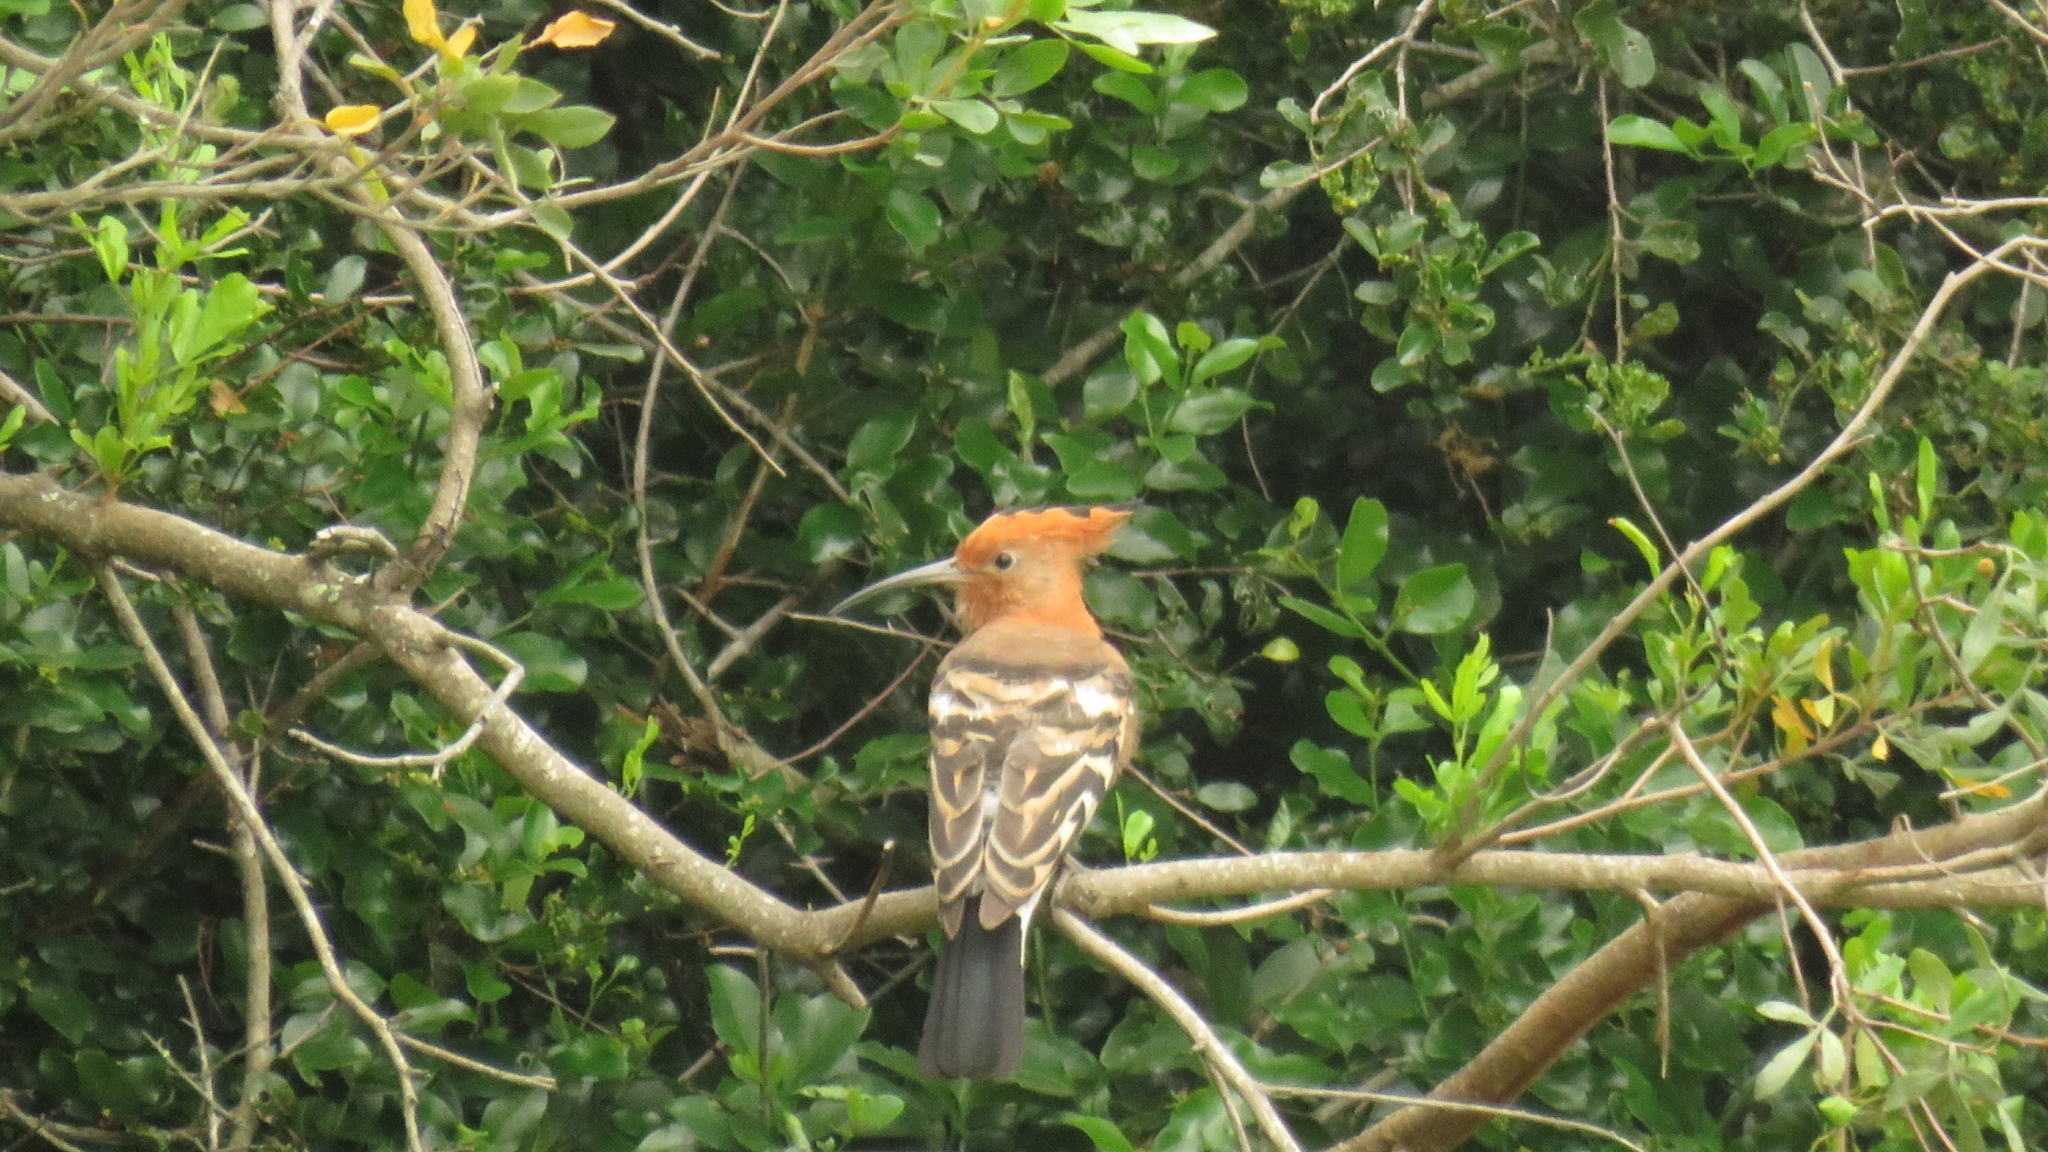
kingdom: Animalia
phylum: Chordata
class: Aves
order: Bucerotiformes
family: Upupidae
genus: Upupa
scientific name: Upupa africana
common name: African hoopoe
